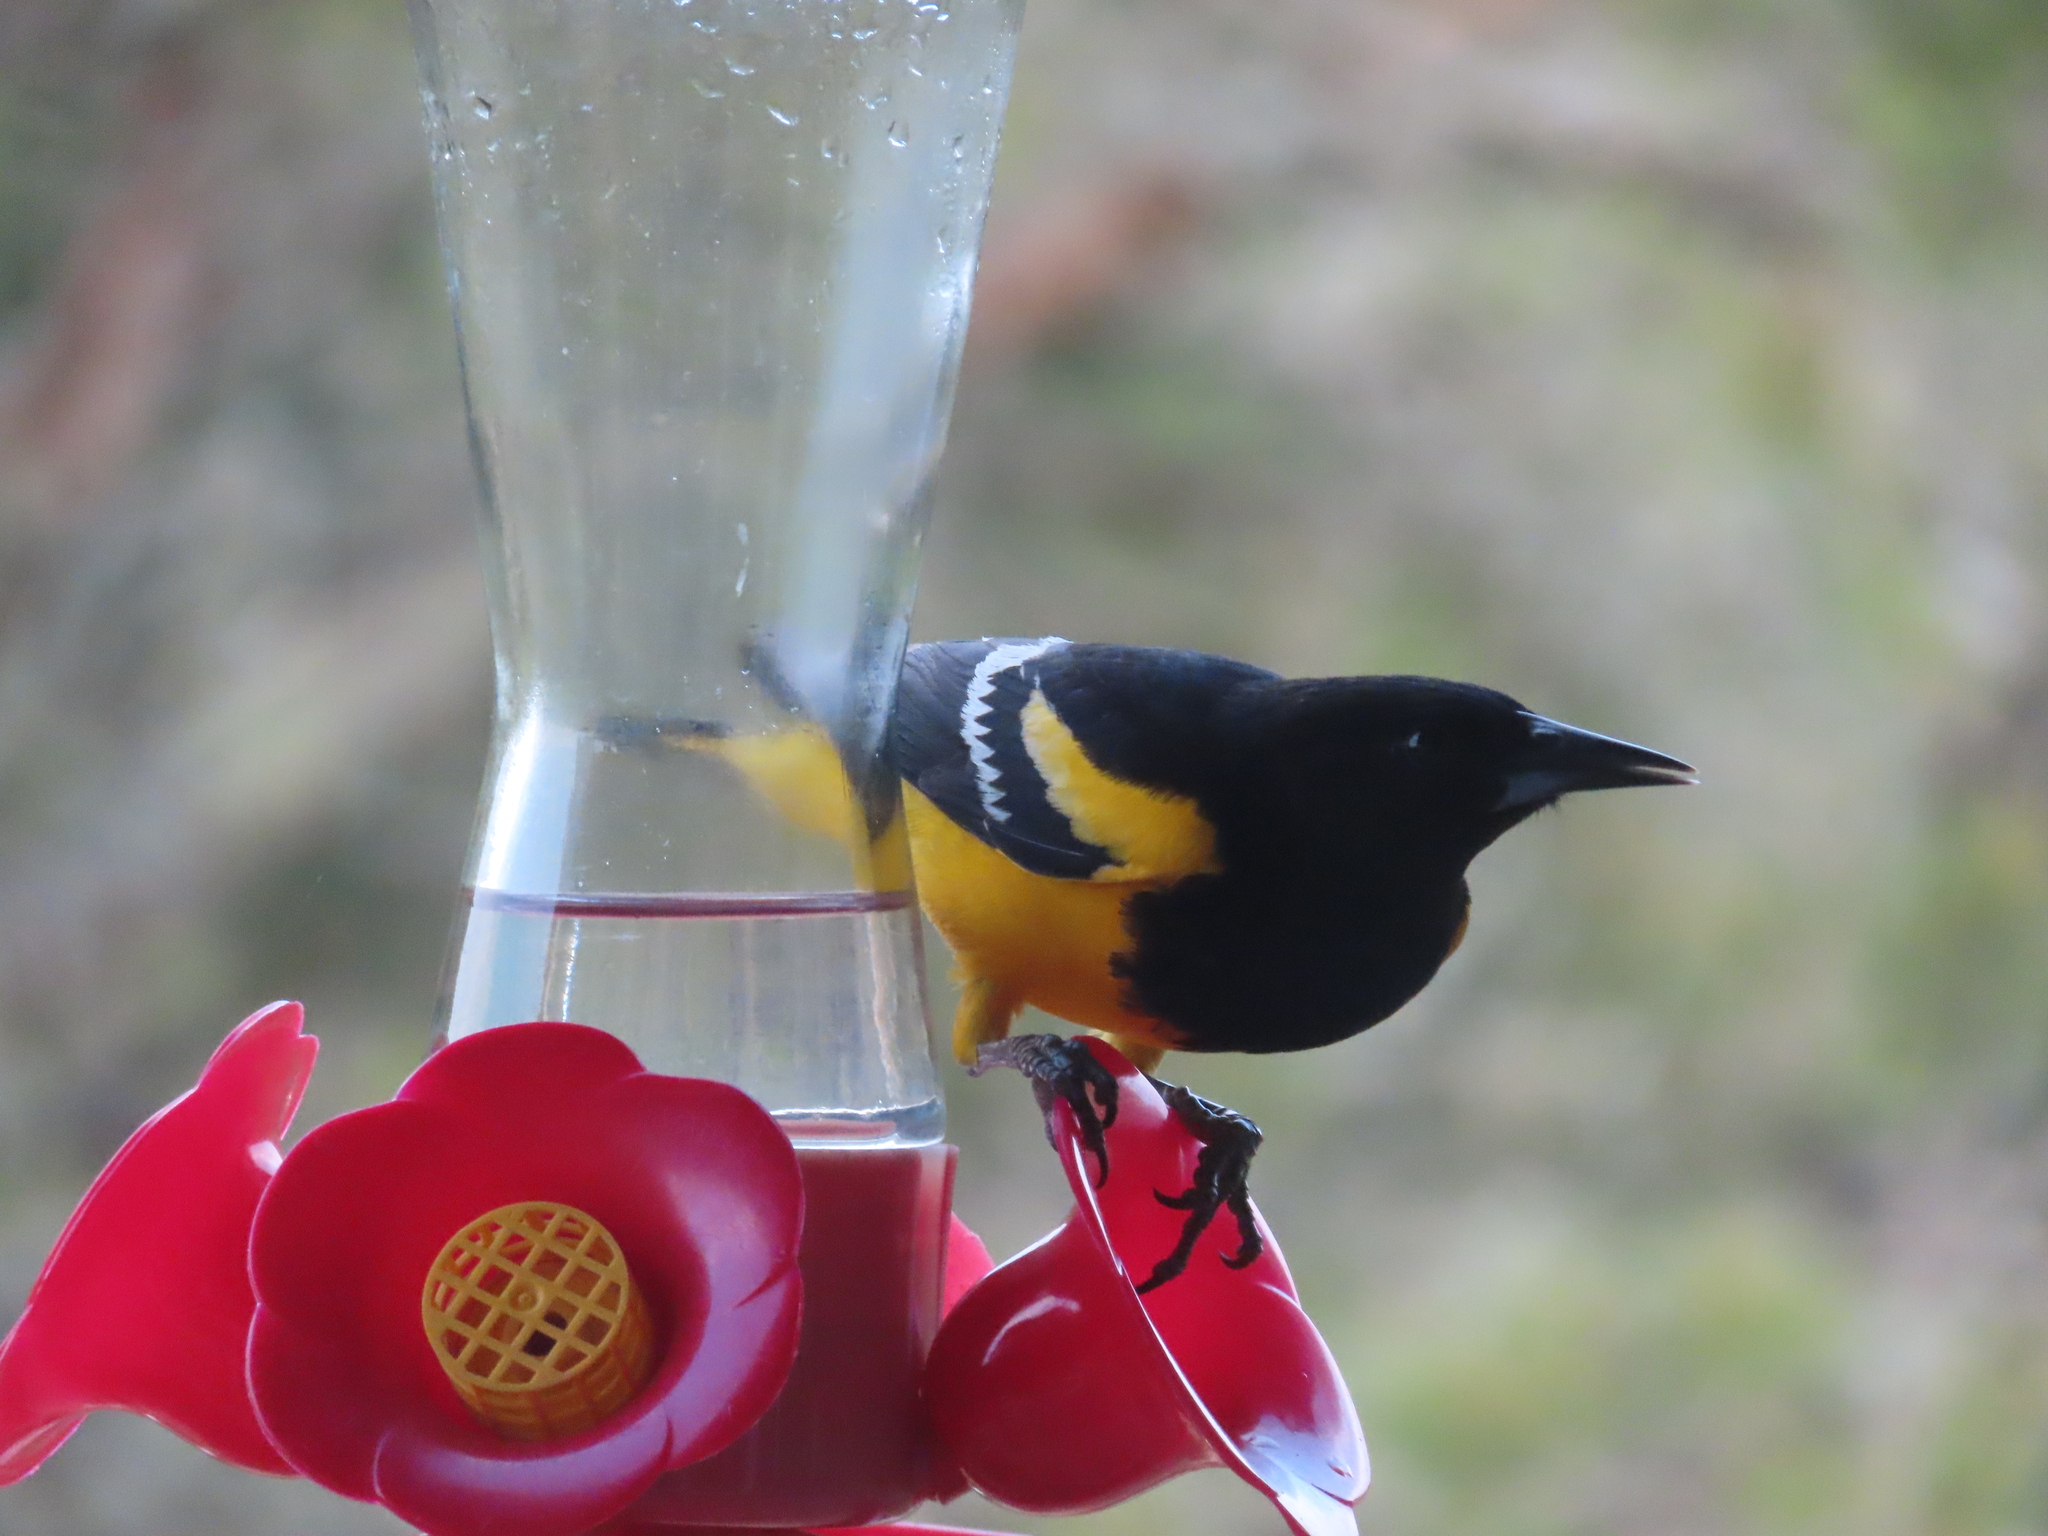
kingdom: Animalia
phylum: Chordata
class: Aves
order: Passeriformes
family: Icteridae
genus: Icterus
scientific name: Icterus parisorum
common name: Scott's oriole
